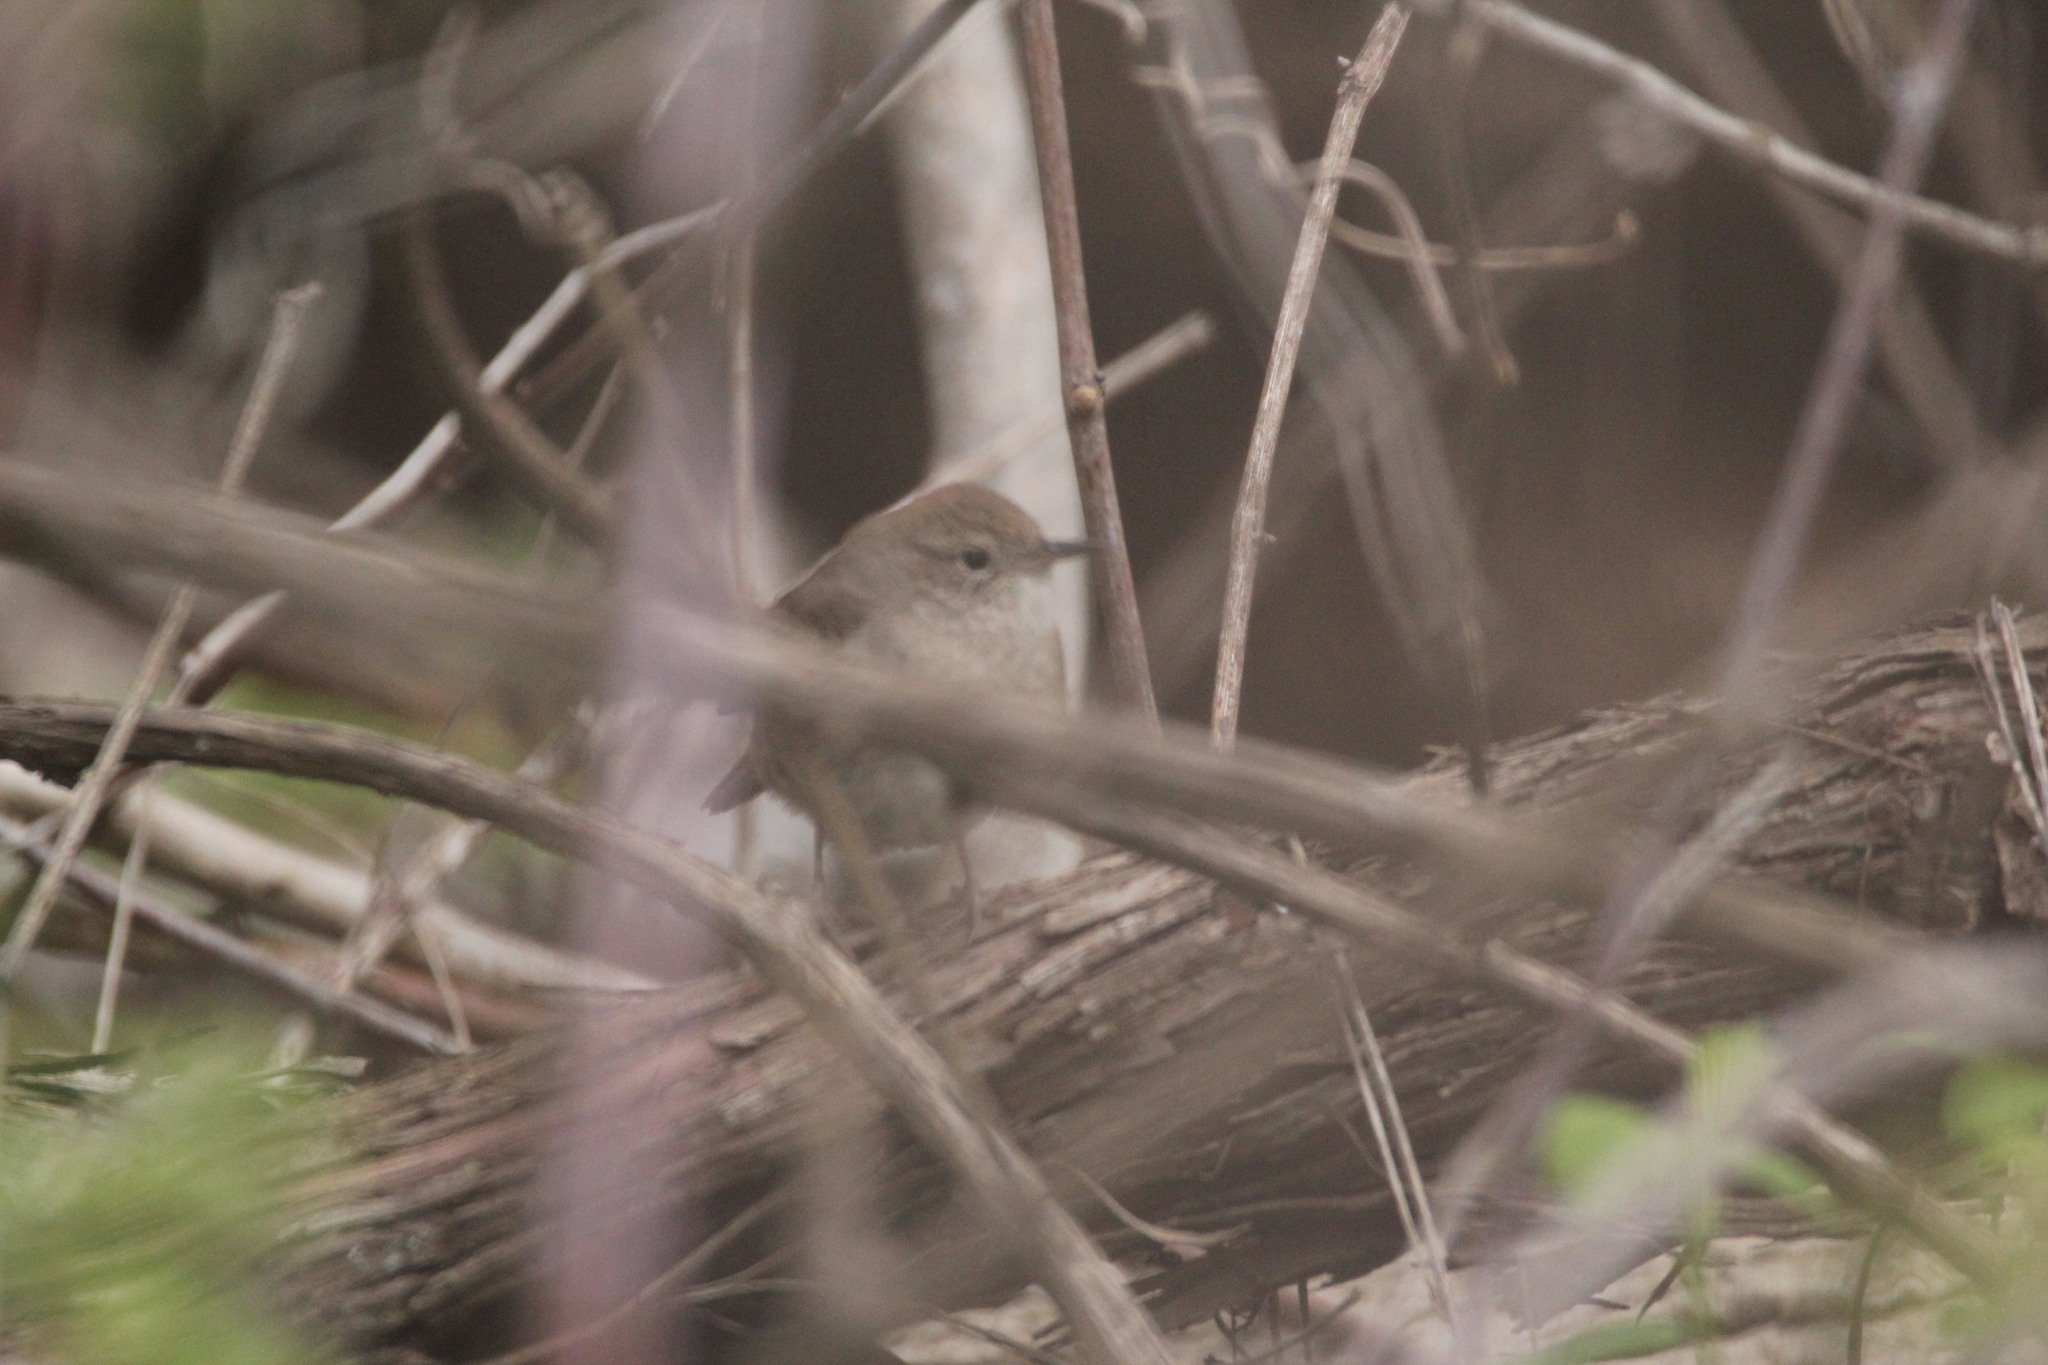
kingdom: Animalia
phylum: Chordata
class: Aves
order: Passeriformes
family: Troglodytidae
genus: Troglodytes
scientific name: Troglodytes aedon
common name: House wren
